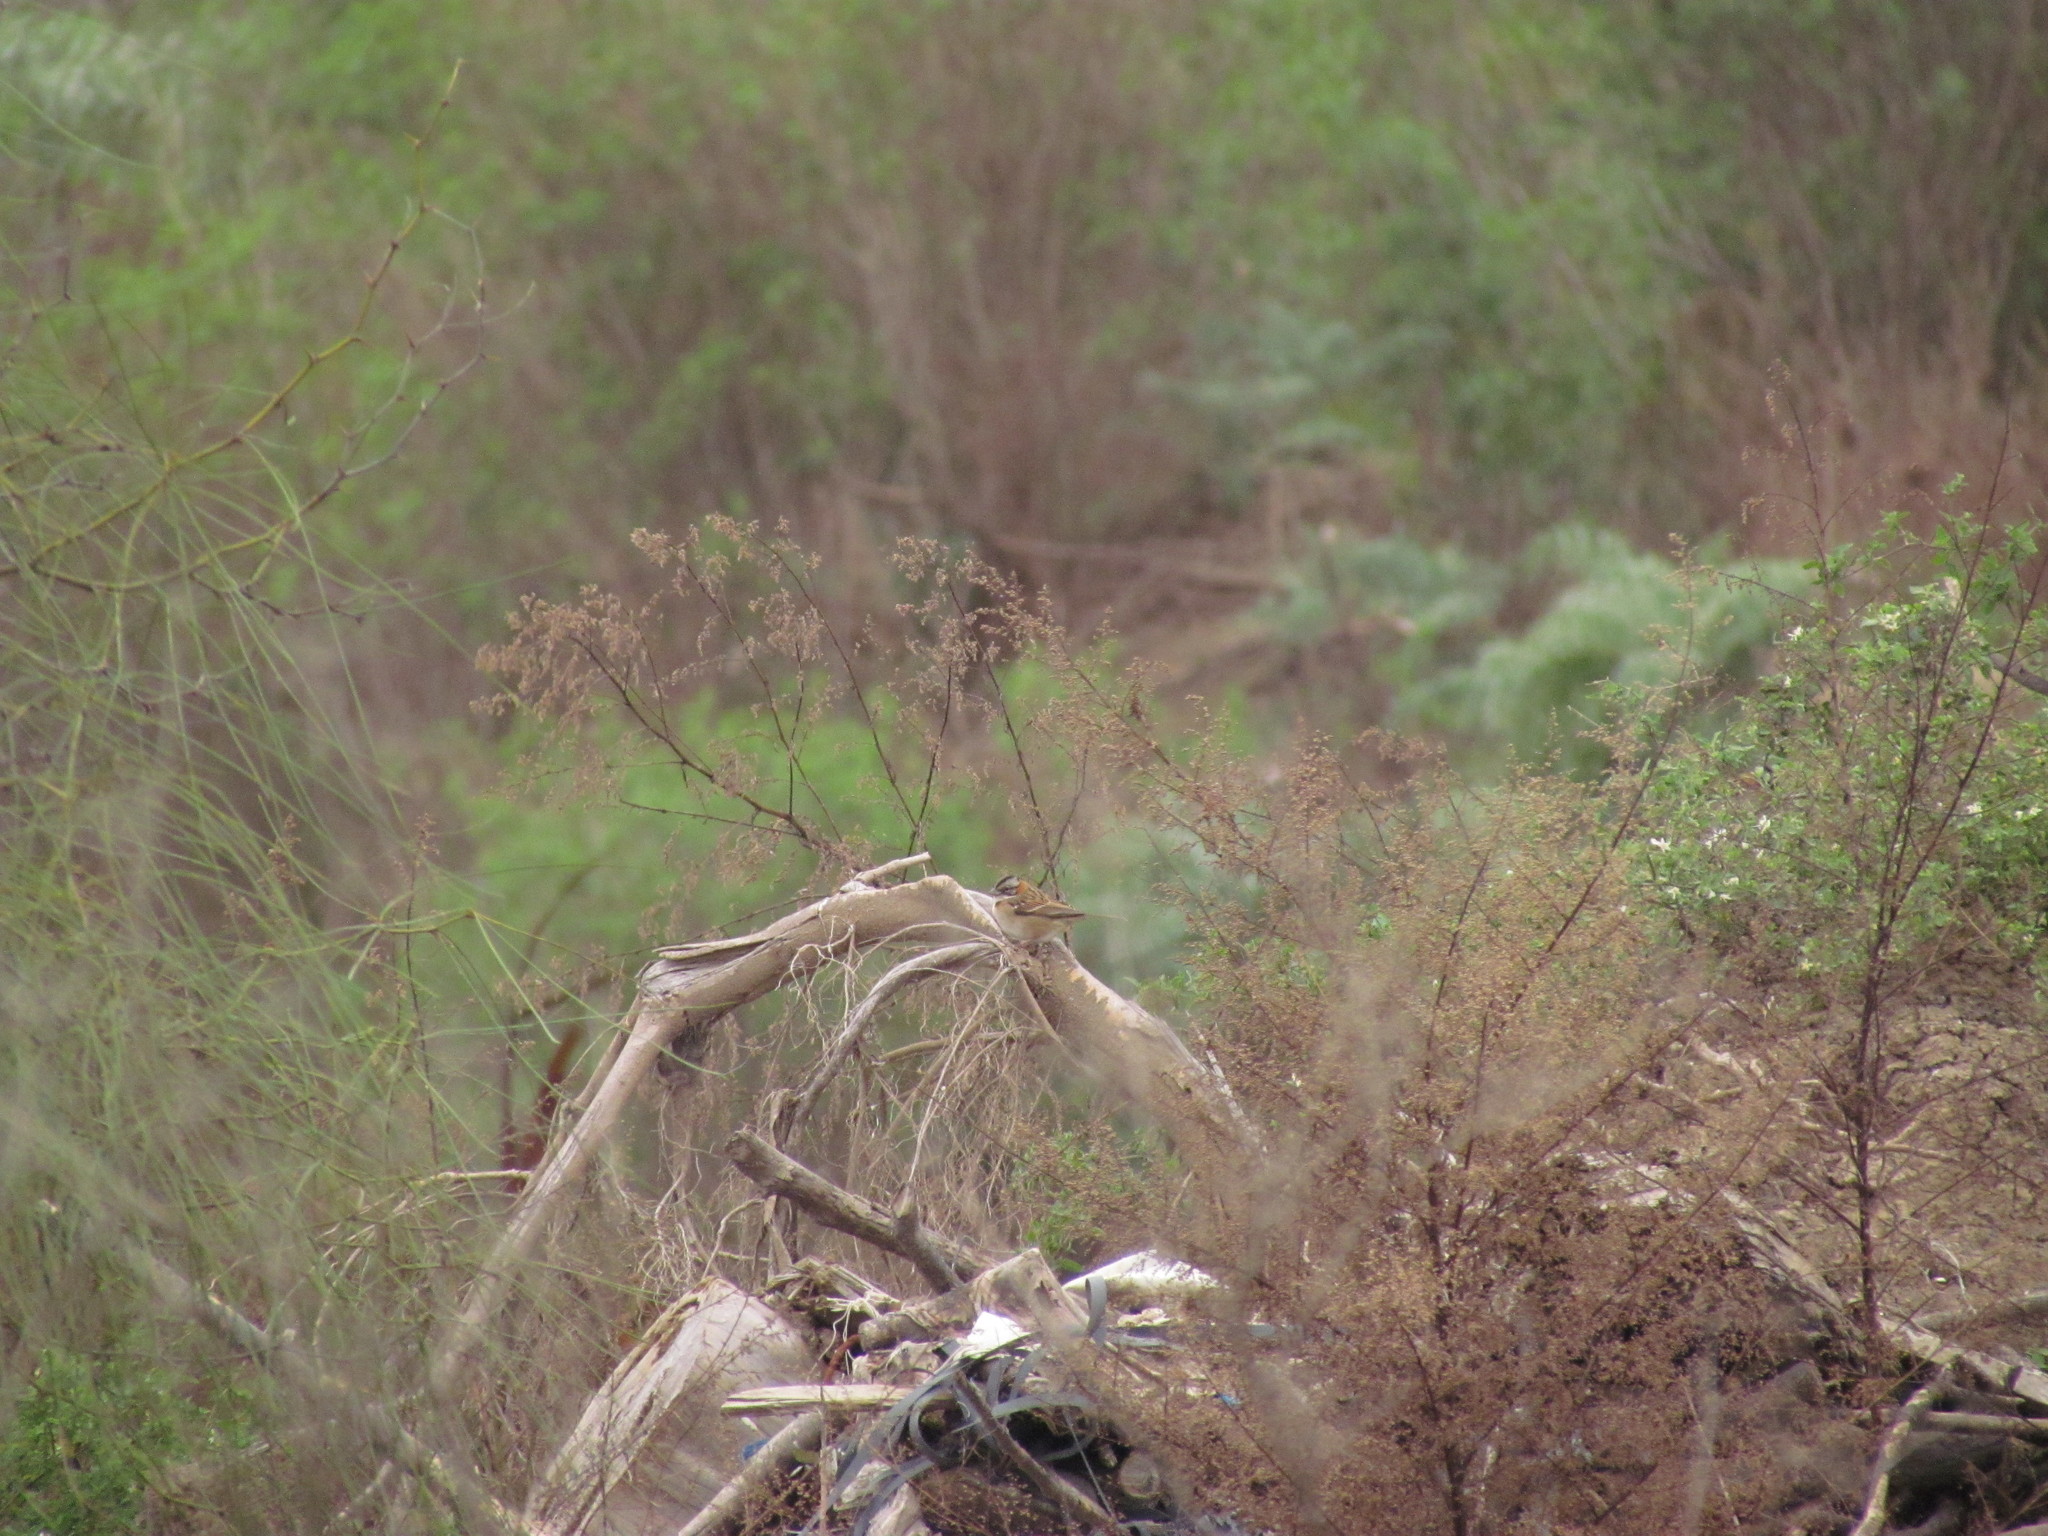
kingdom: Animalia
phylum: Chordata
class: Aves
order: Passeriformes
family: Passerellidae
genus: Zonotrichia
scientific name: Zonotrichia capensis
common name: Rufous-collared sparrow
